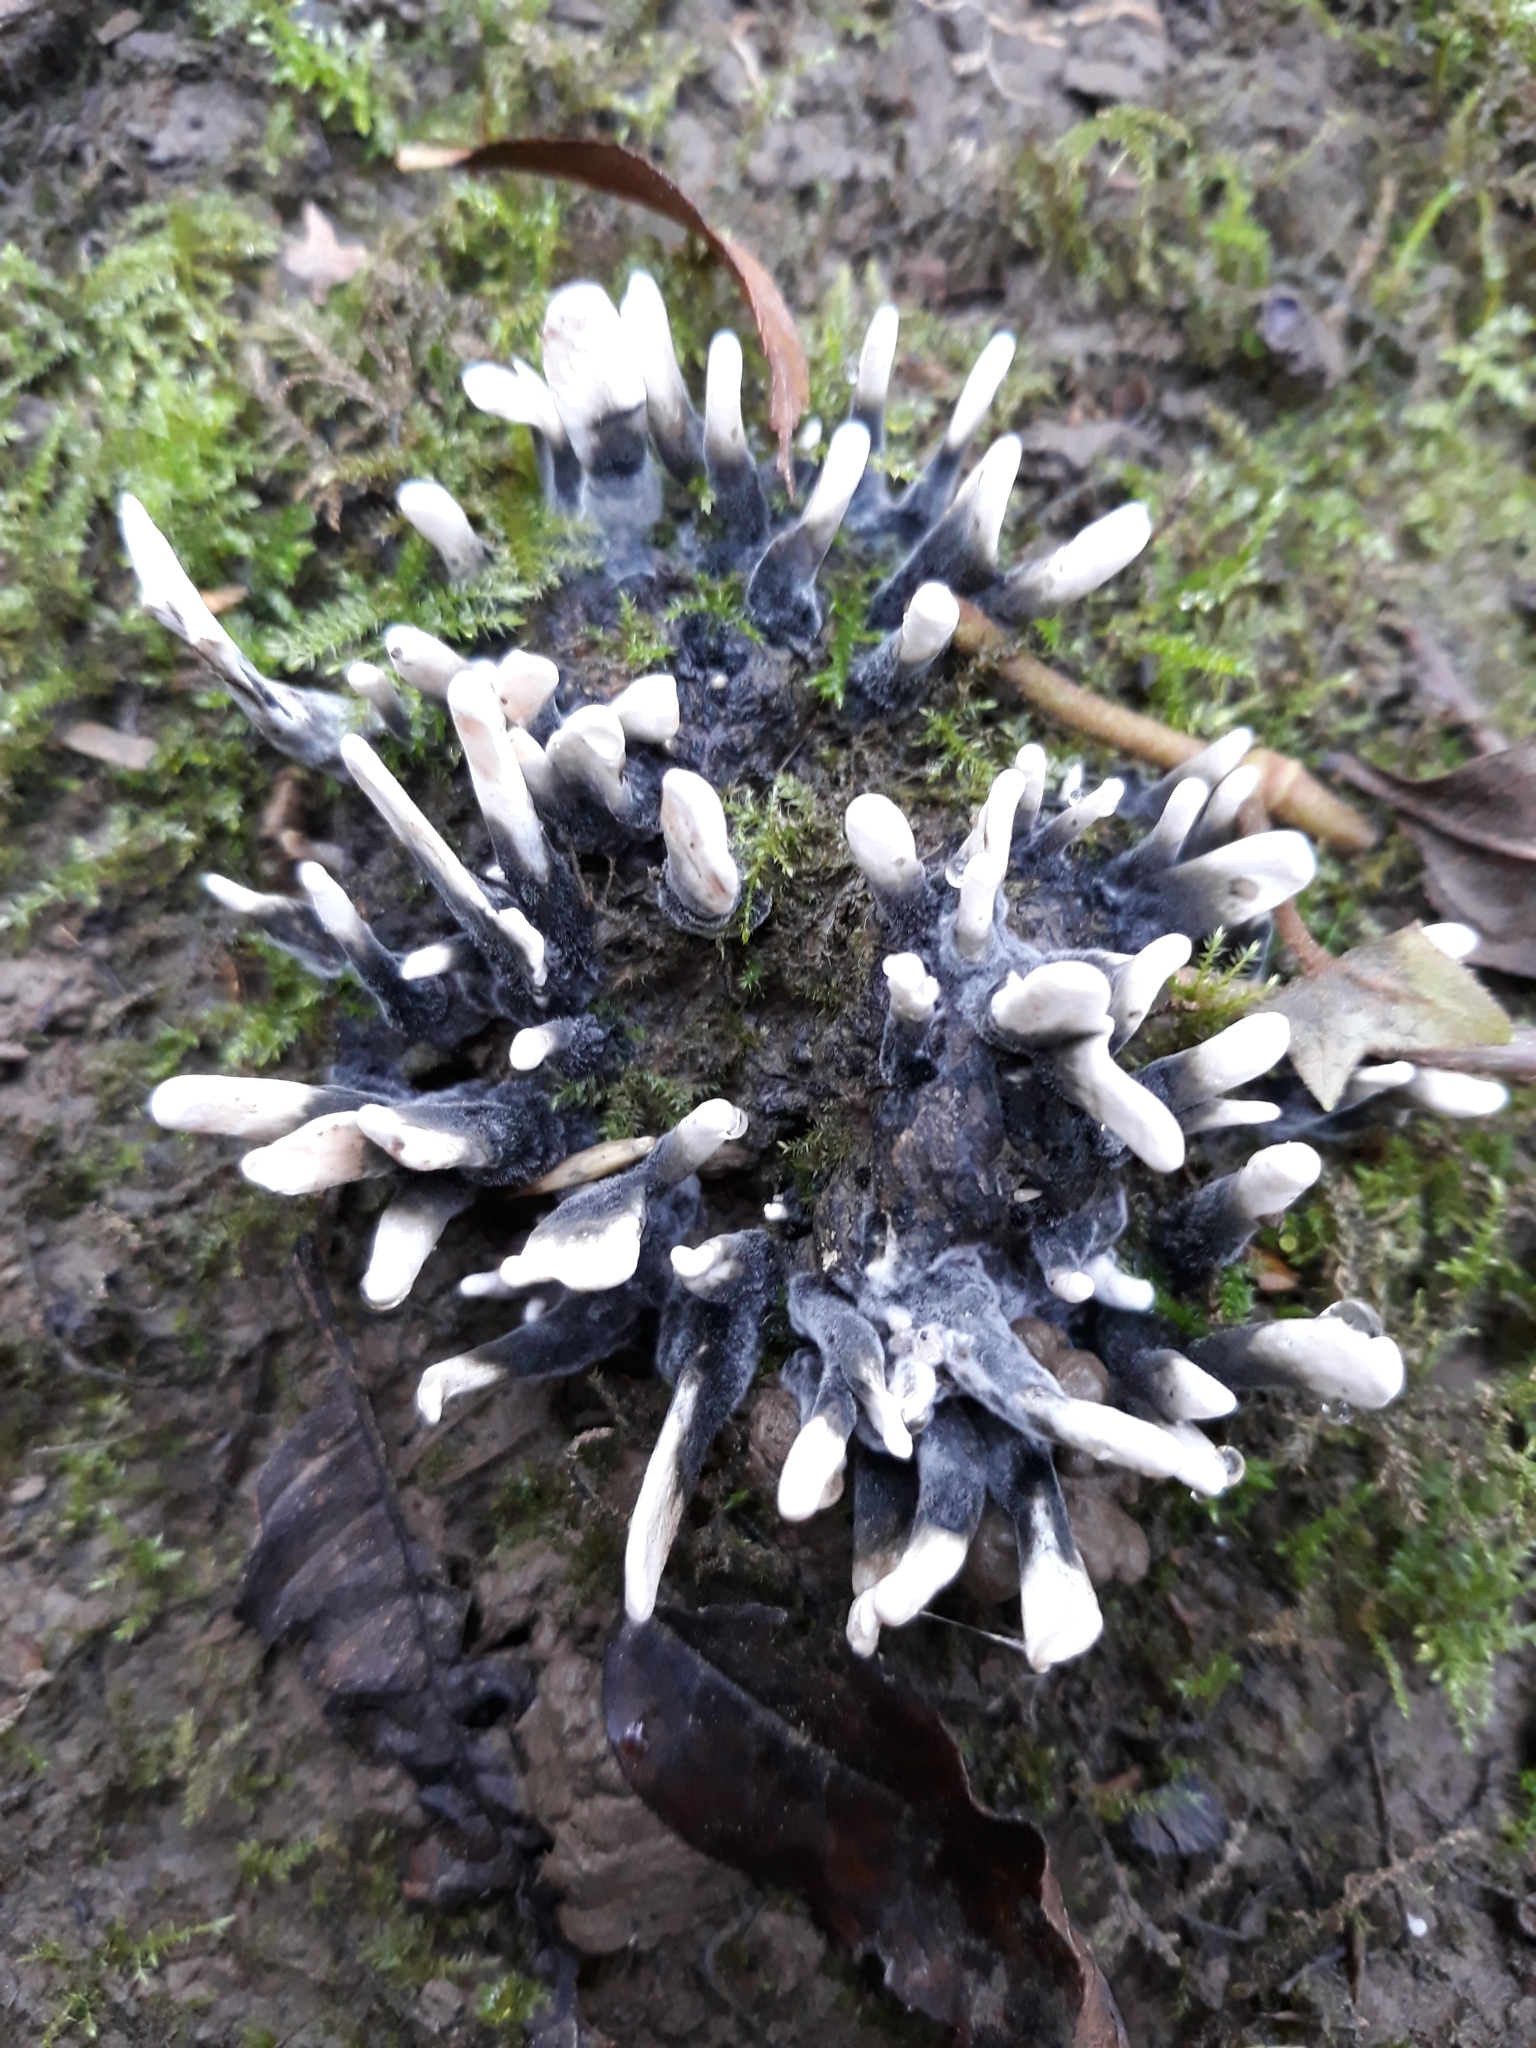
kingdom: Fungi
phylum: Ascomycota
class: Sordariomycetes
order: Xylariales
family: Xylariaceae
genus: Xylaria
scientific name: Xylaria hypoxylon
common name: Candle-snuff fungus
